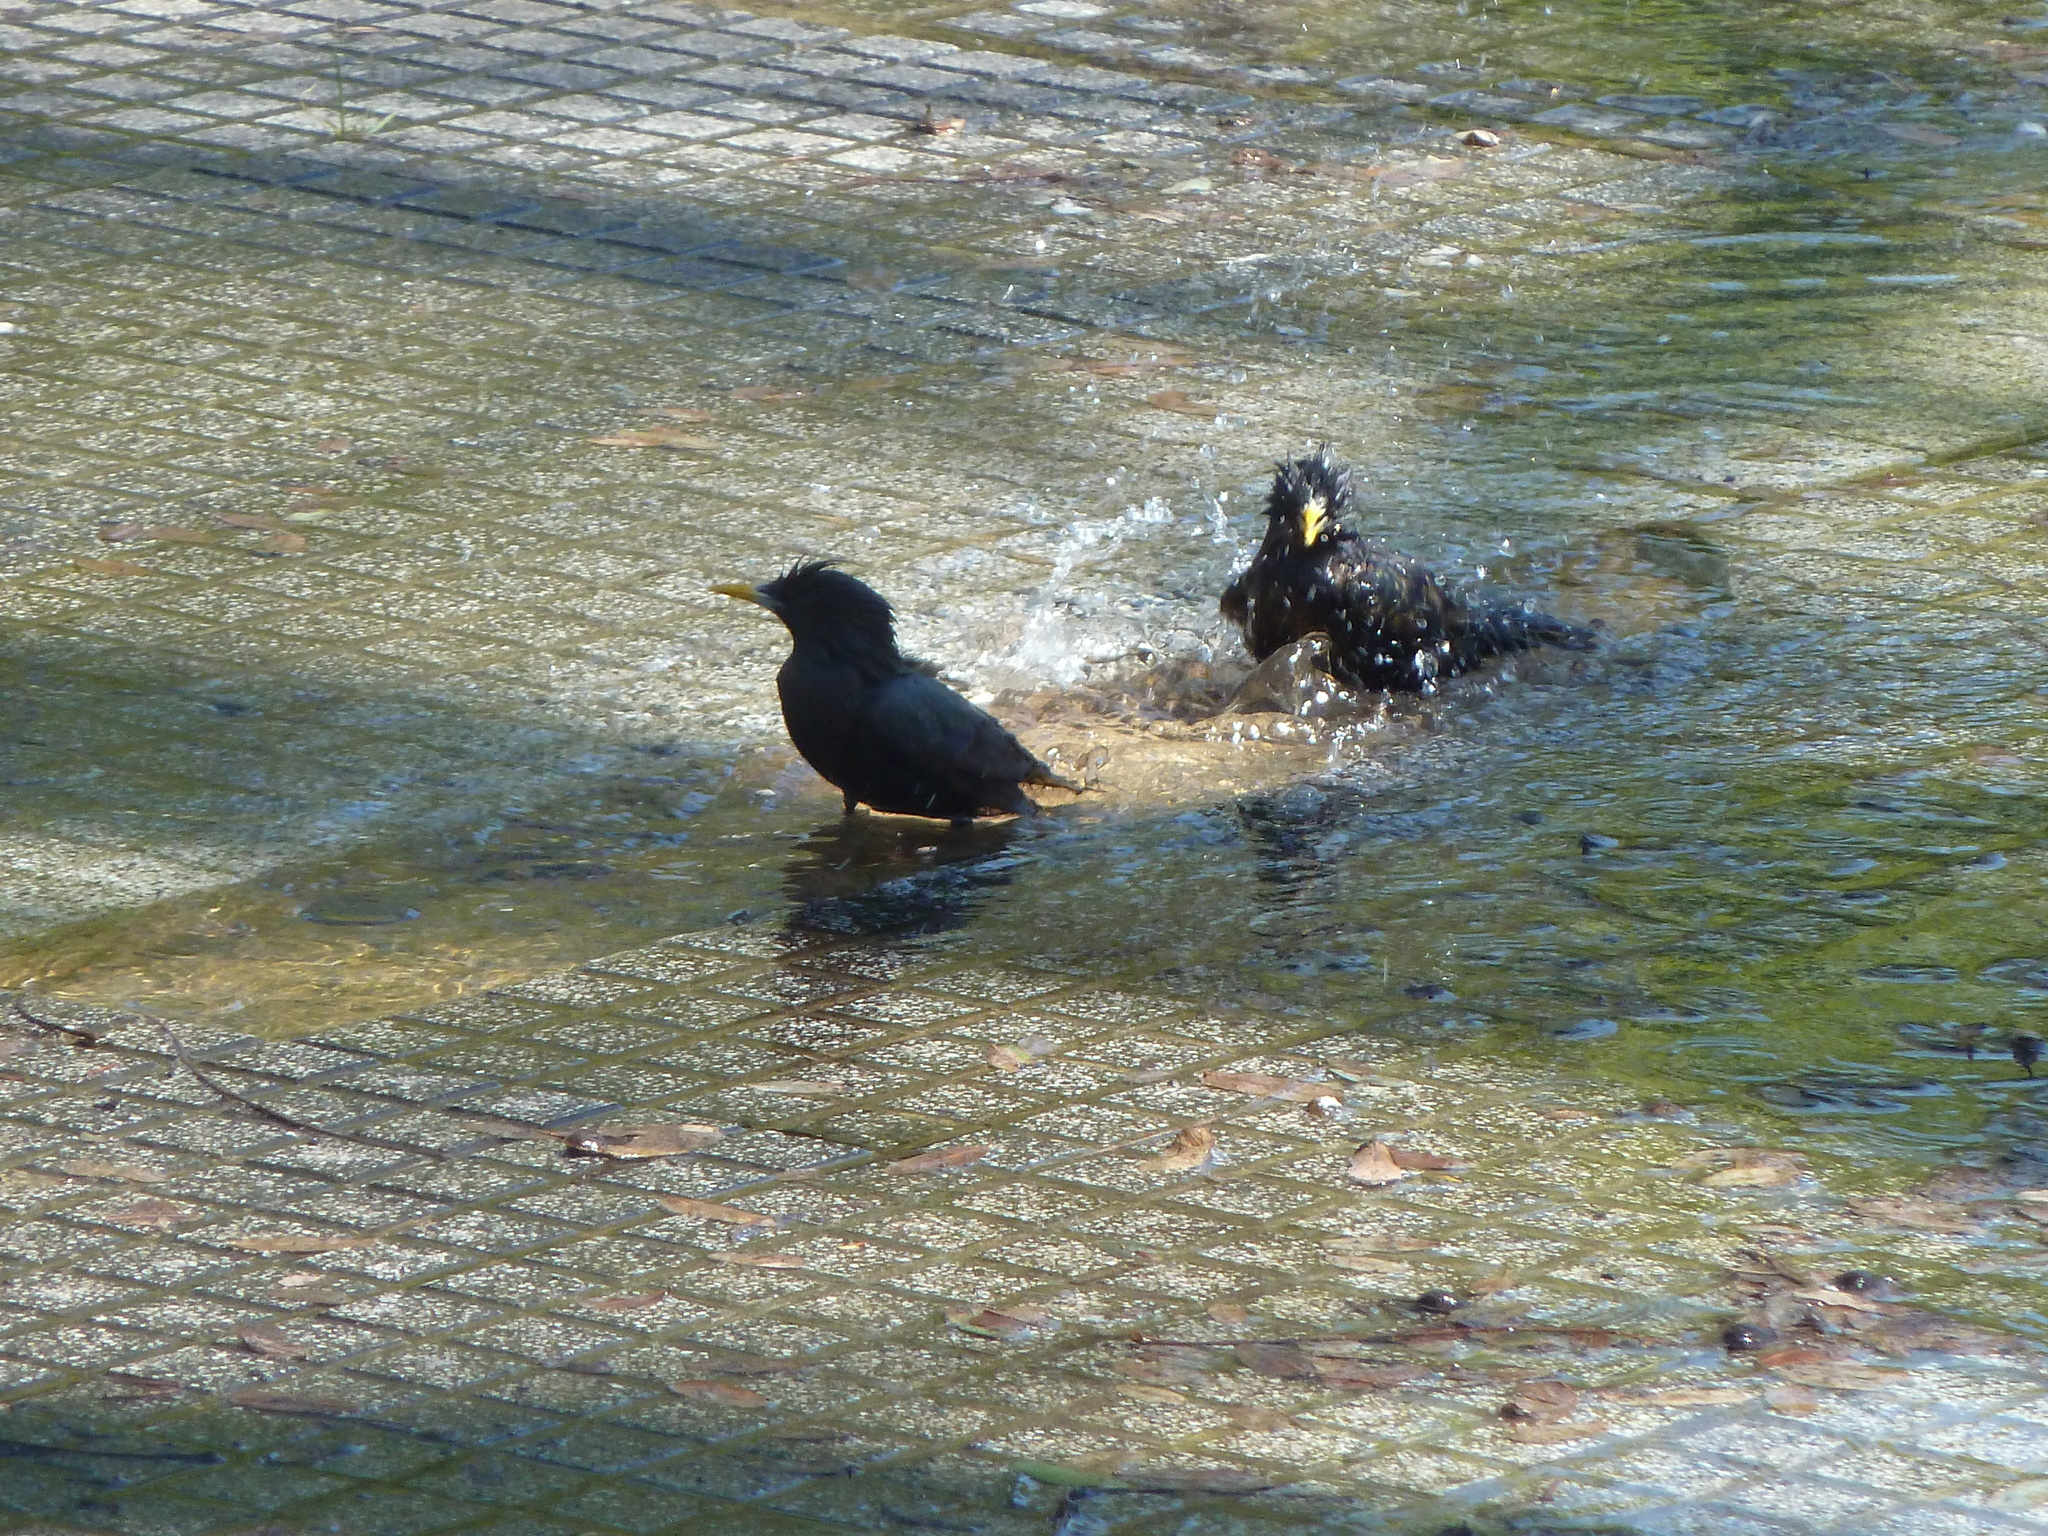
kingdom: Animalia
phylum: Chordata
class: Aves
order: Passeriformes
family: Sturnidae
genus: Sturnus
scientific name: Sturnus vulgaris
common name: Common starling
